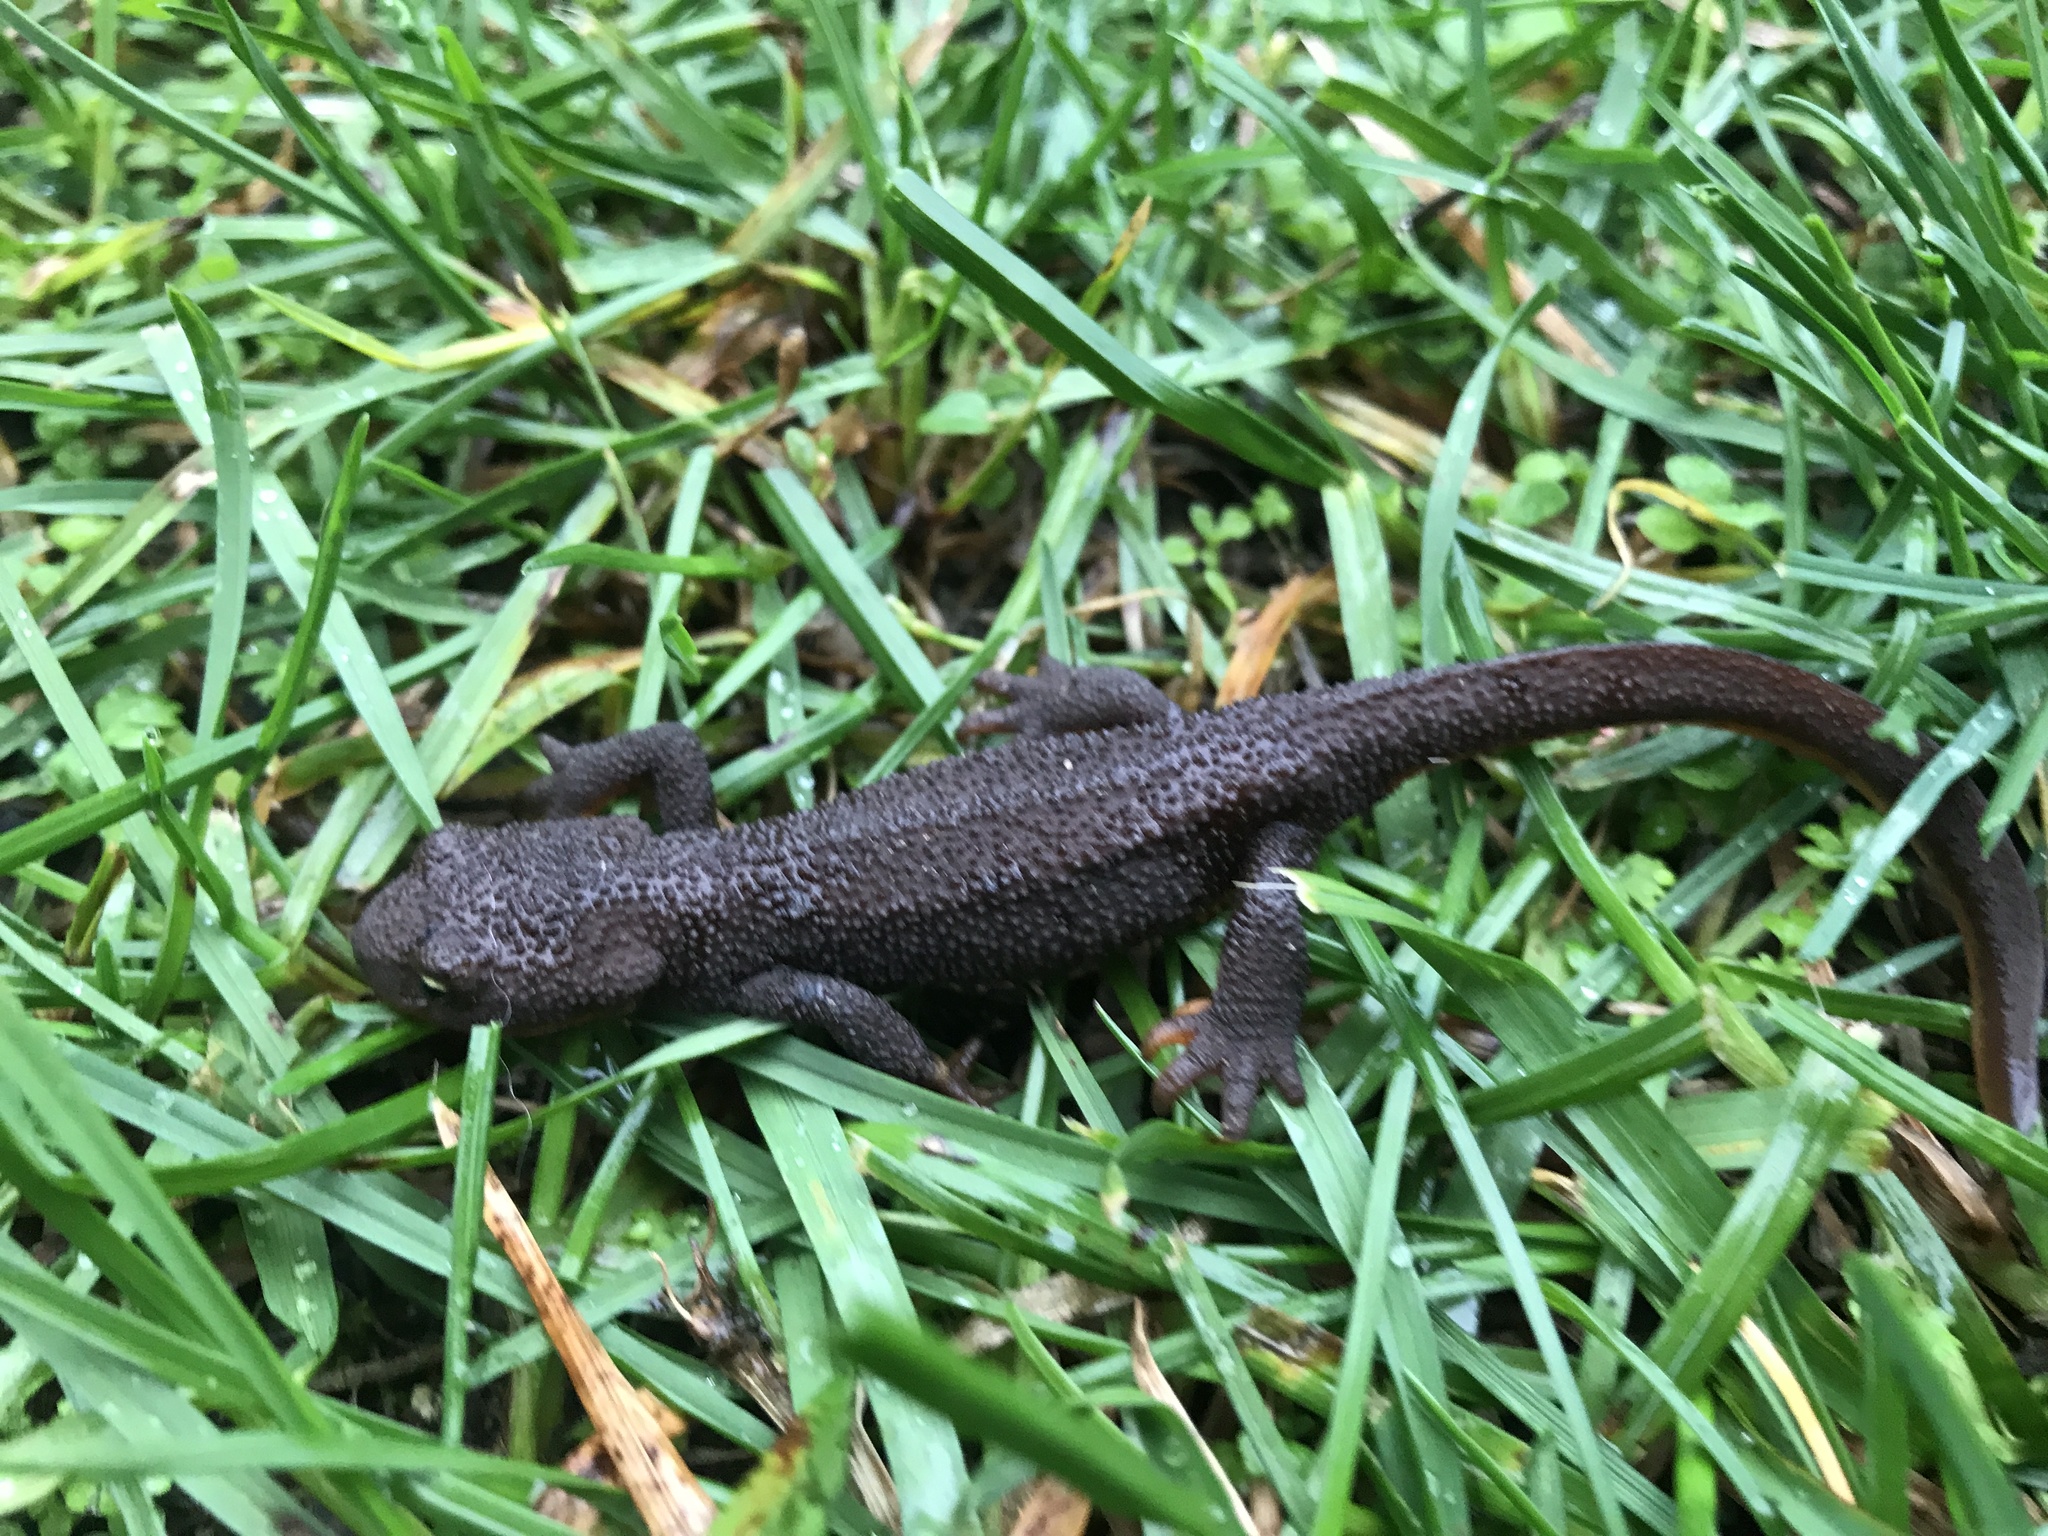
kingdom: Animalia
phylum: Chordata
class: Amphibia
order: Caudata
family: Salamandridae
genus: Taricha
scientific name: Taricha granulosa
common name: Roughskin newt
